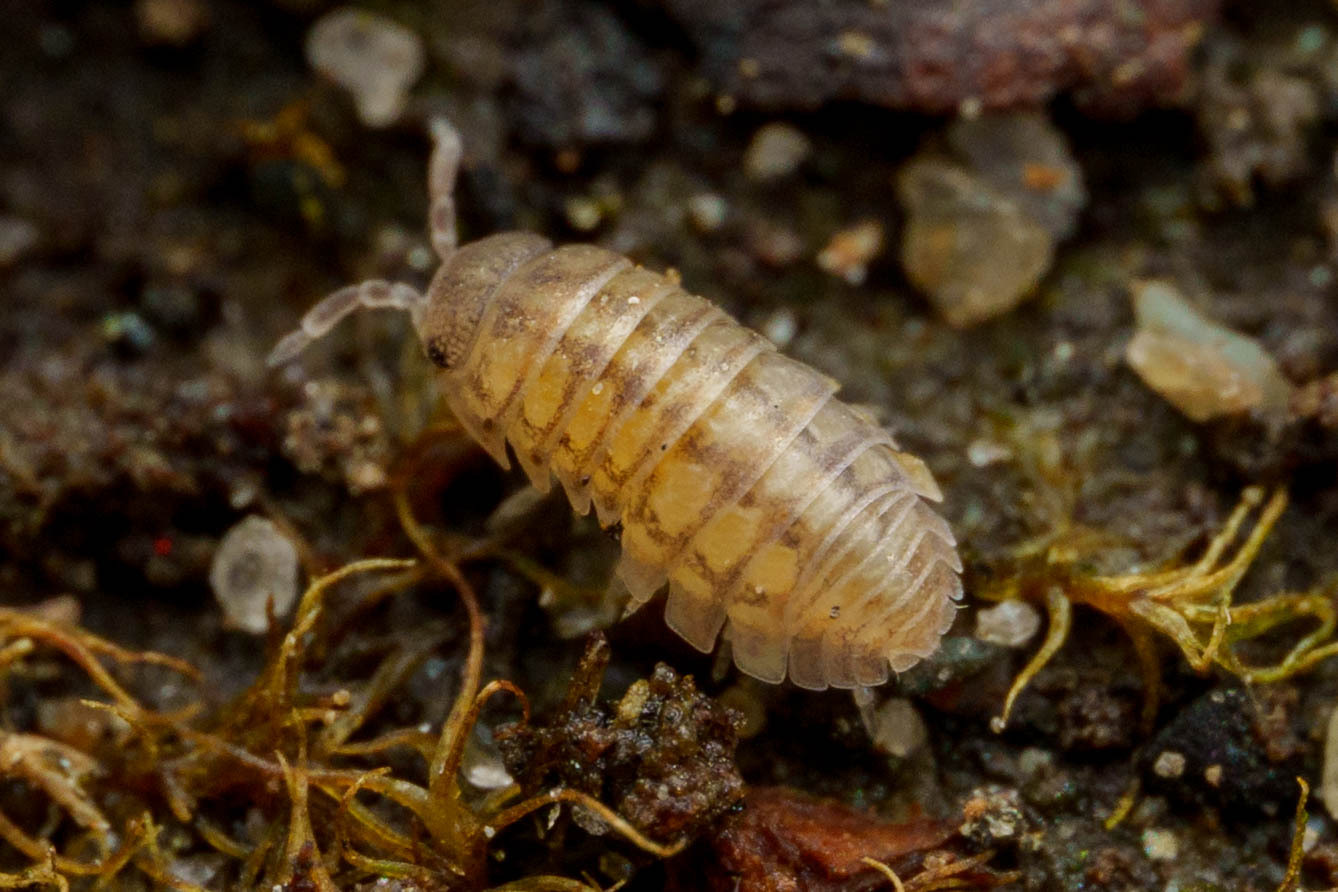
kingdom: Animalia
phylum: Arthropoda
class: Malacostraca
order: Isopoda
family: Armadillidiidae
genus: Armadillidium
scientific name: Armadillidium vulgare
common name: Common pill woodlouse
